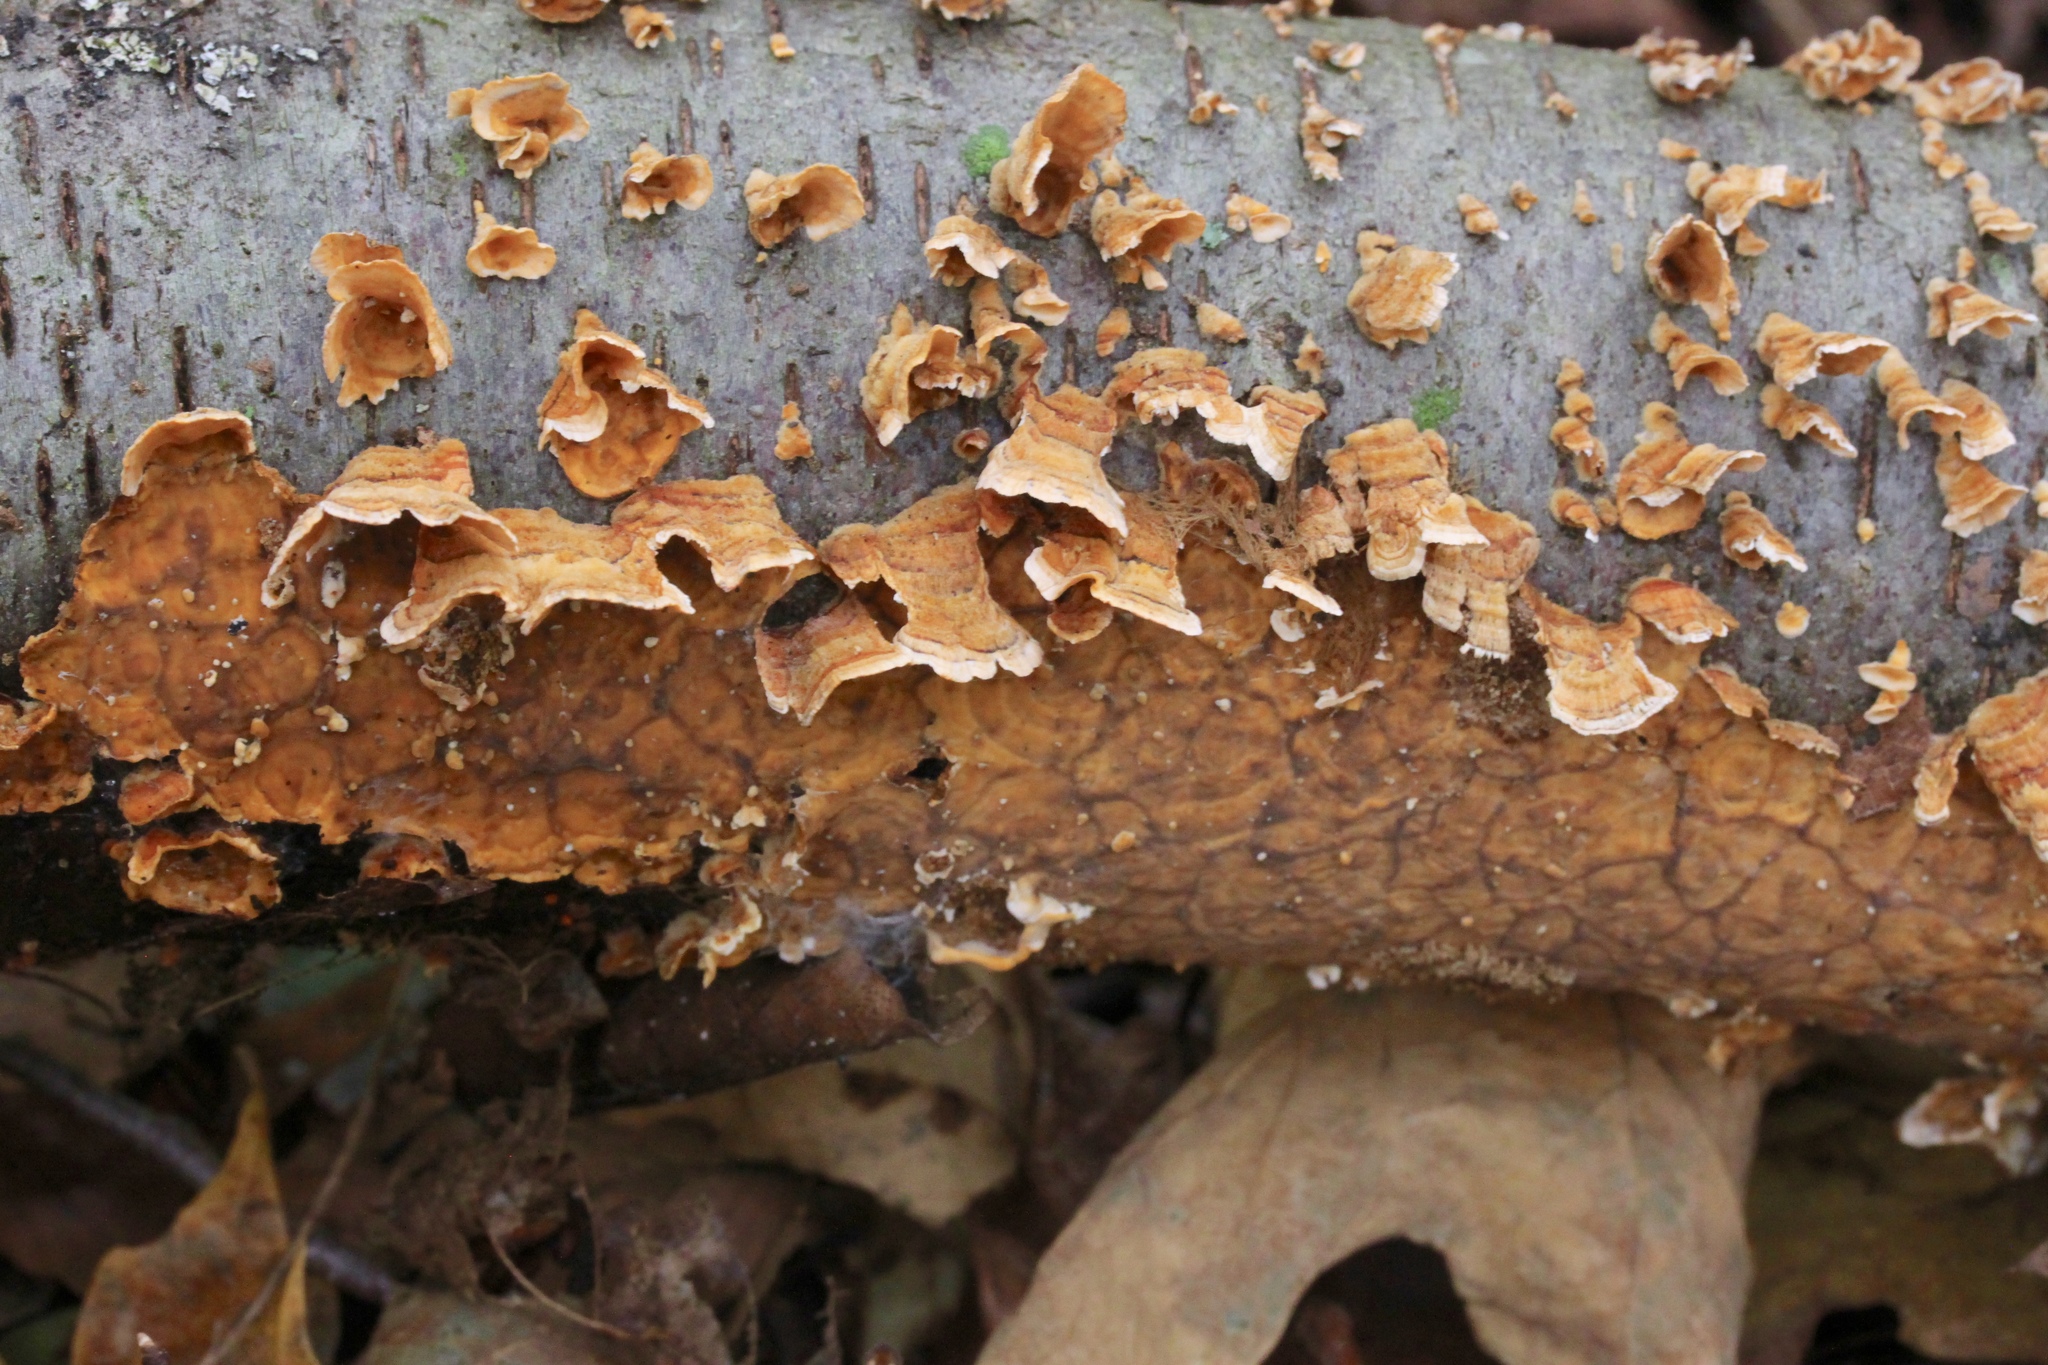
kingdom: Fungi
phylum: Basidiomycota
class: Agaricomycetes
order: Russulales
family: Stereaceae
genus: Stereum
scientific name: Stereum complicatum
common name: Crowded parchment
